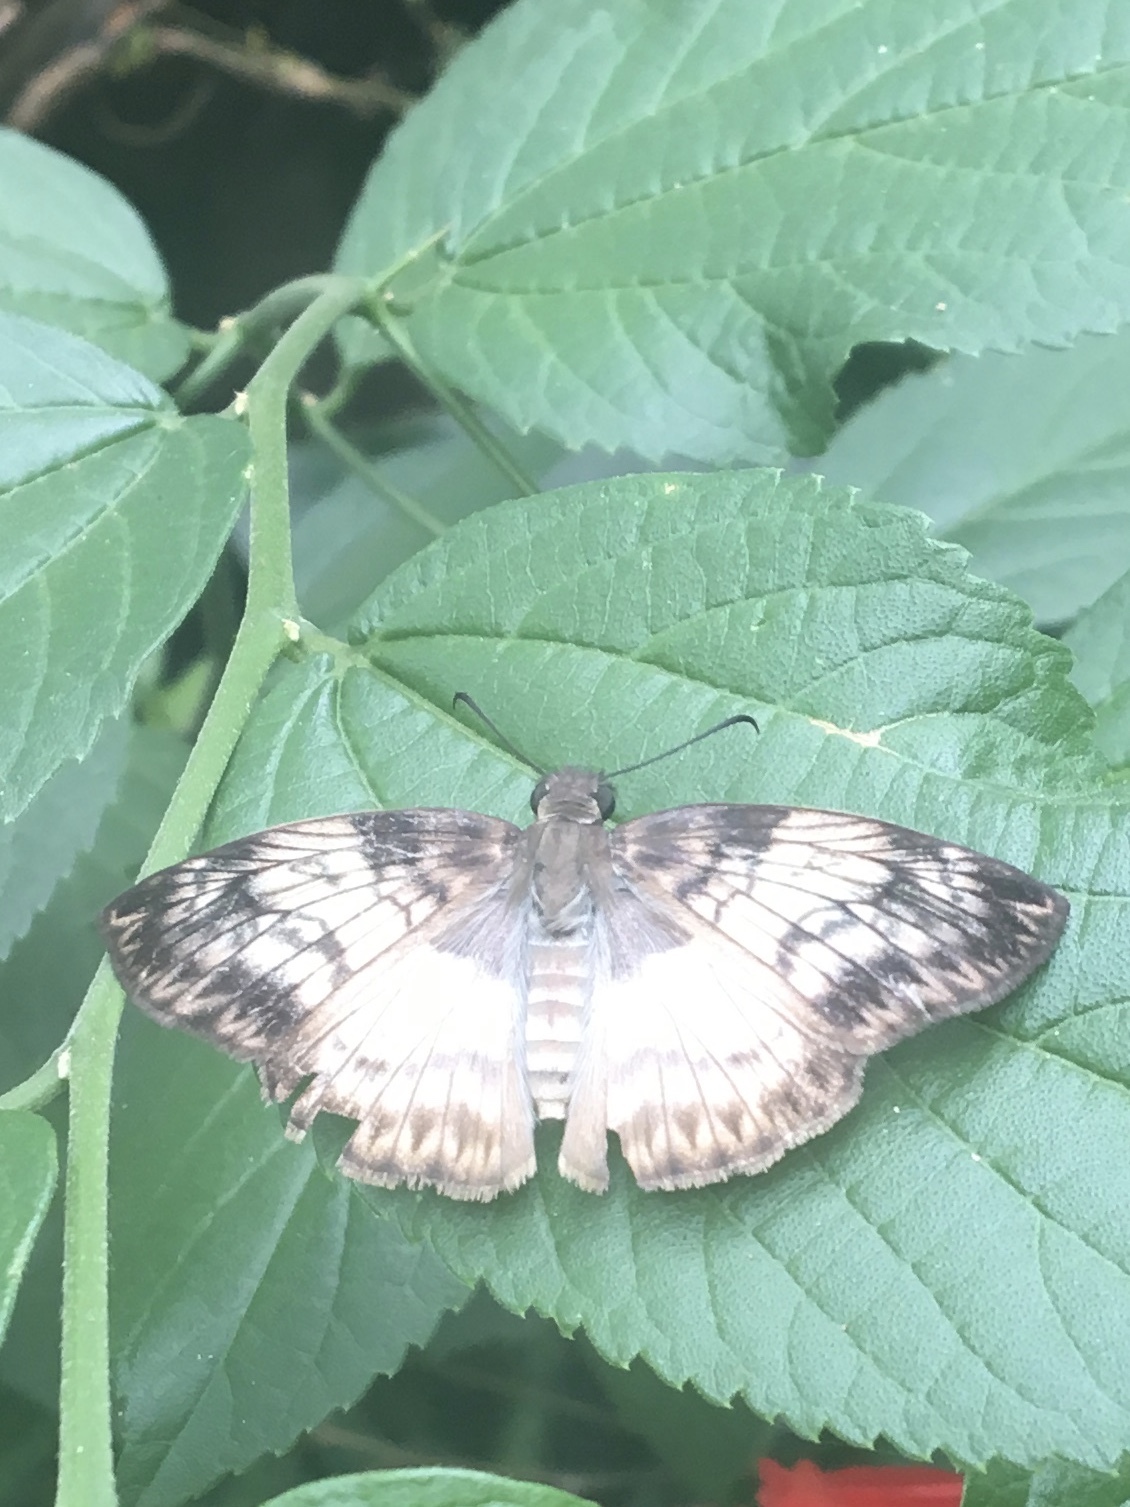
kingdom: Animalia
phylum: Arthropoda
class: Insecta
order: Lepidoptera
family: Hesperiidae
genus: Mylon
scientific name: Mylon maimon
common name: Common mylon
